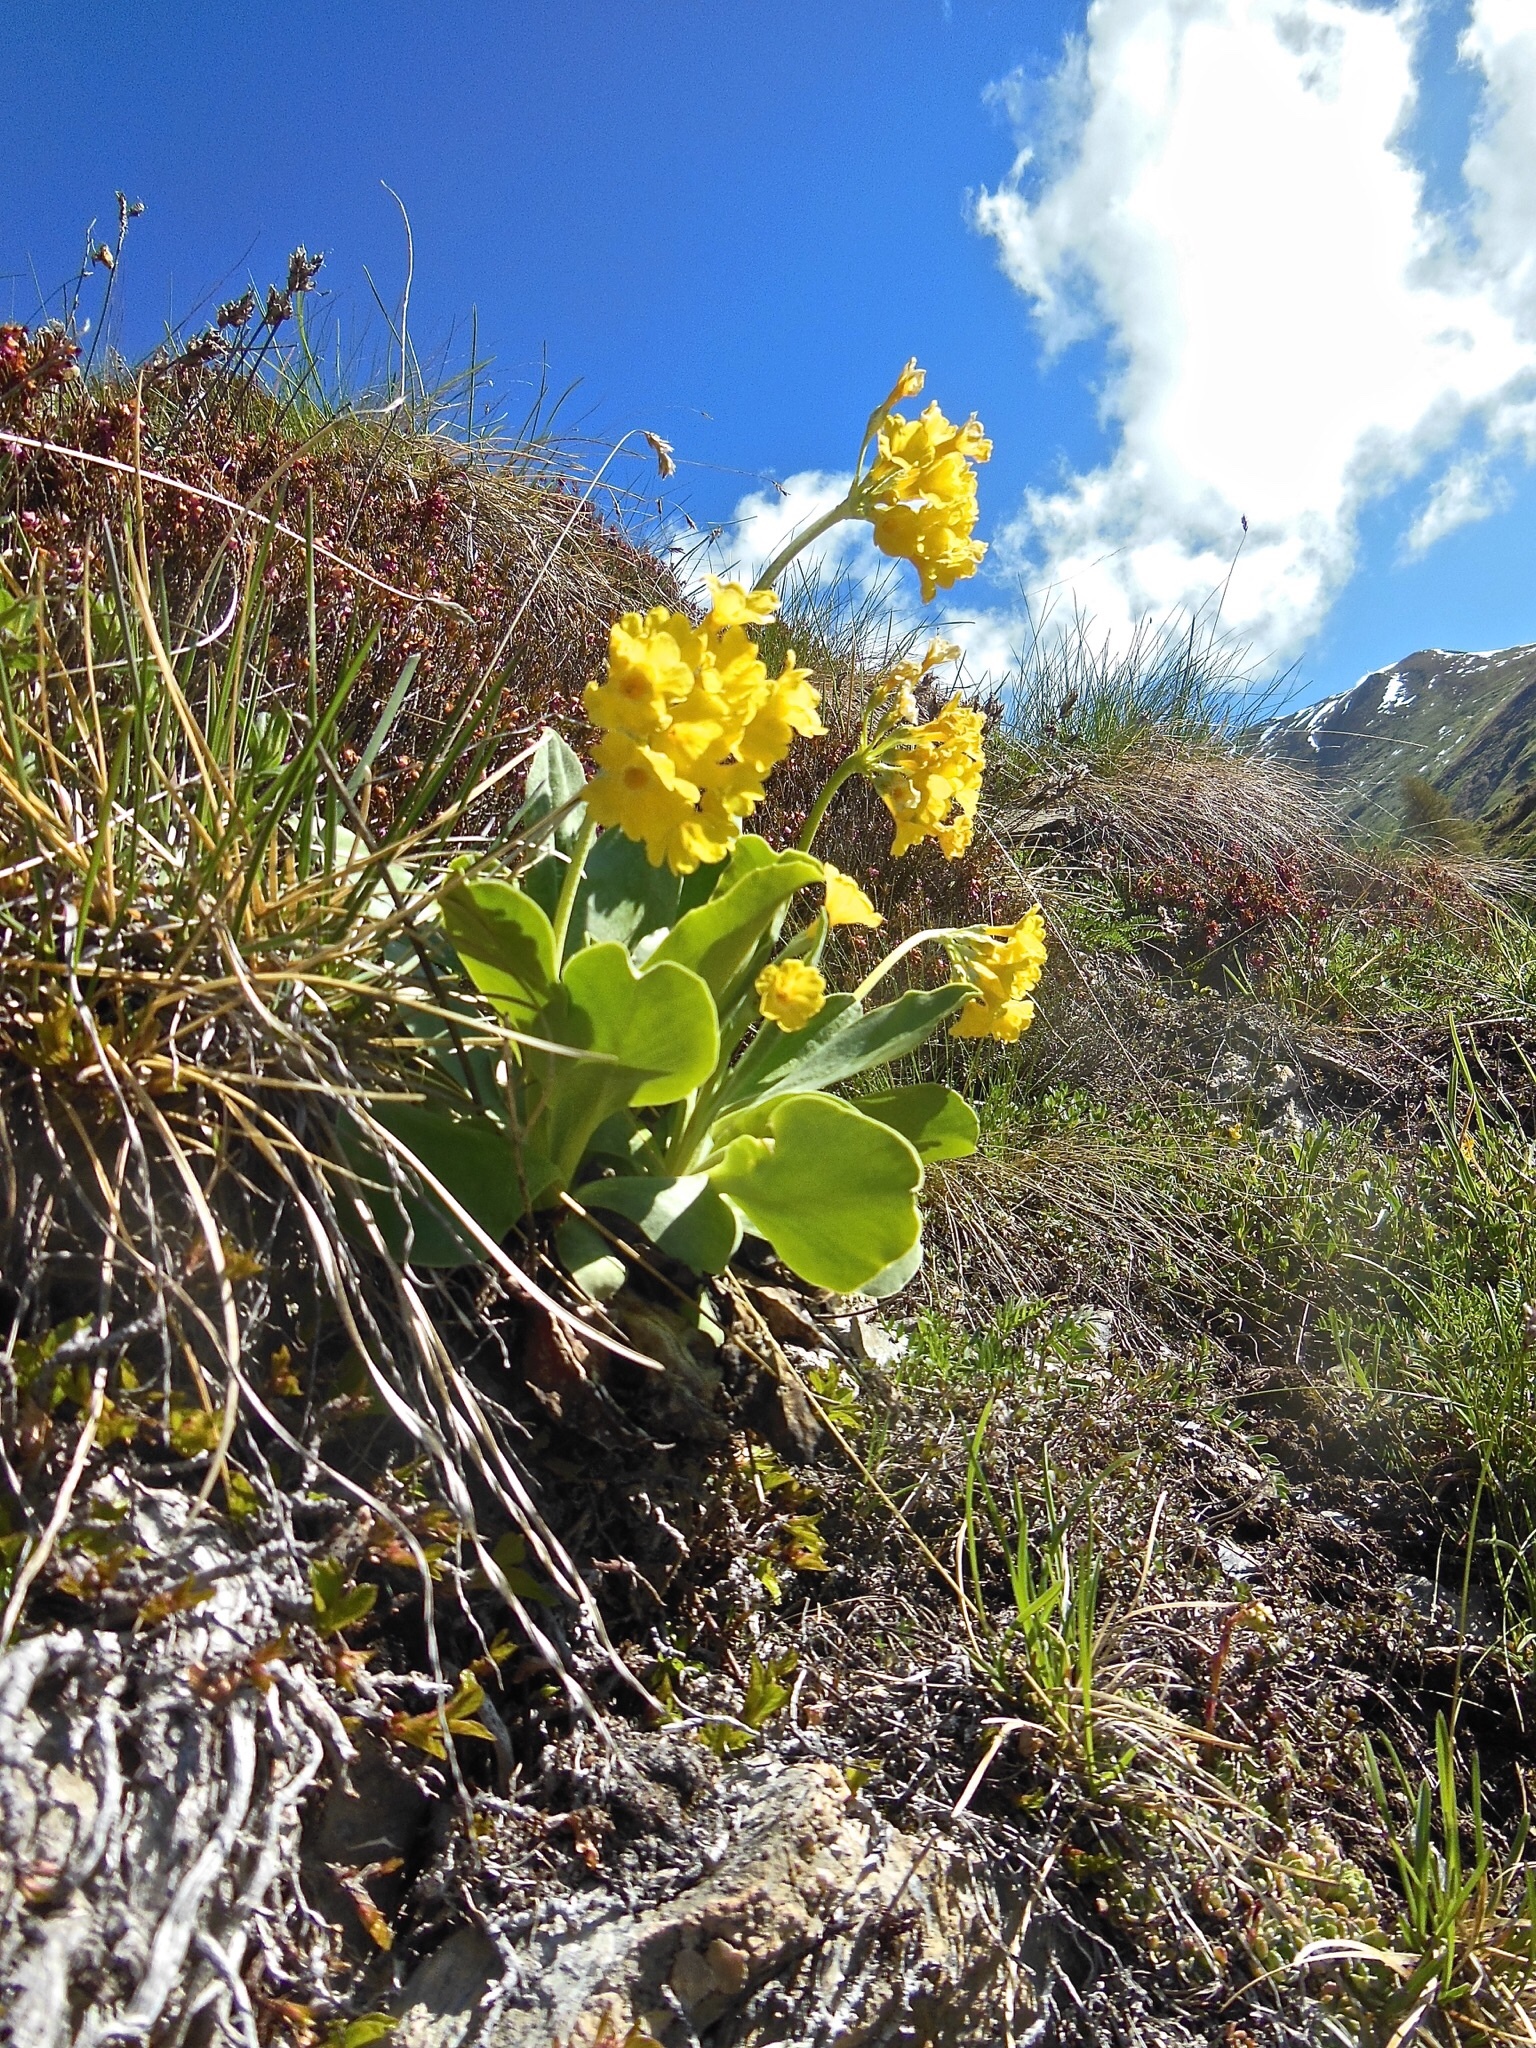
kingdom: Plantae
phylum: Tracheophyta
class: Magnoliopsida
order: Ericales
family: Primulaceae
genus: Primula
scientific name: Primula auricula
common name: Auricula
